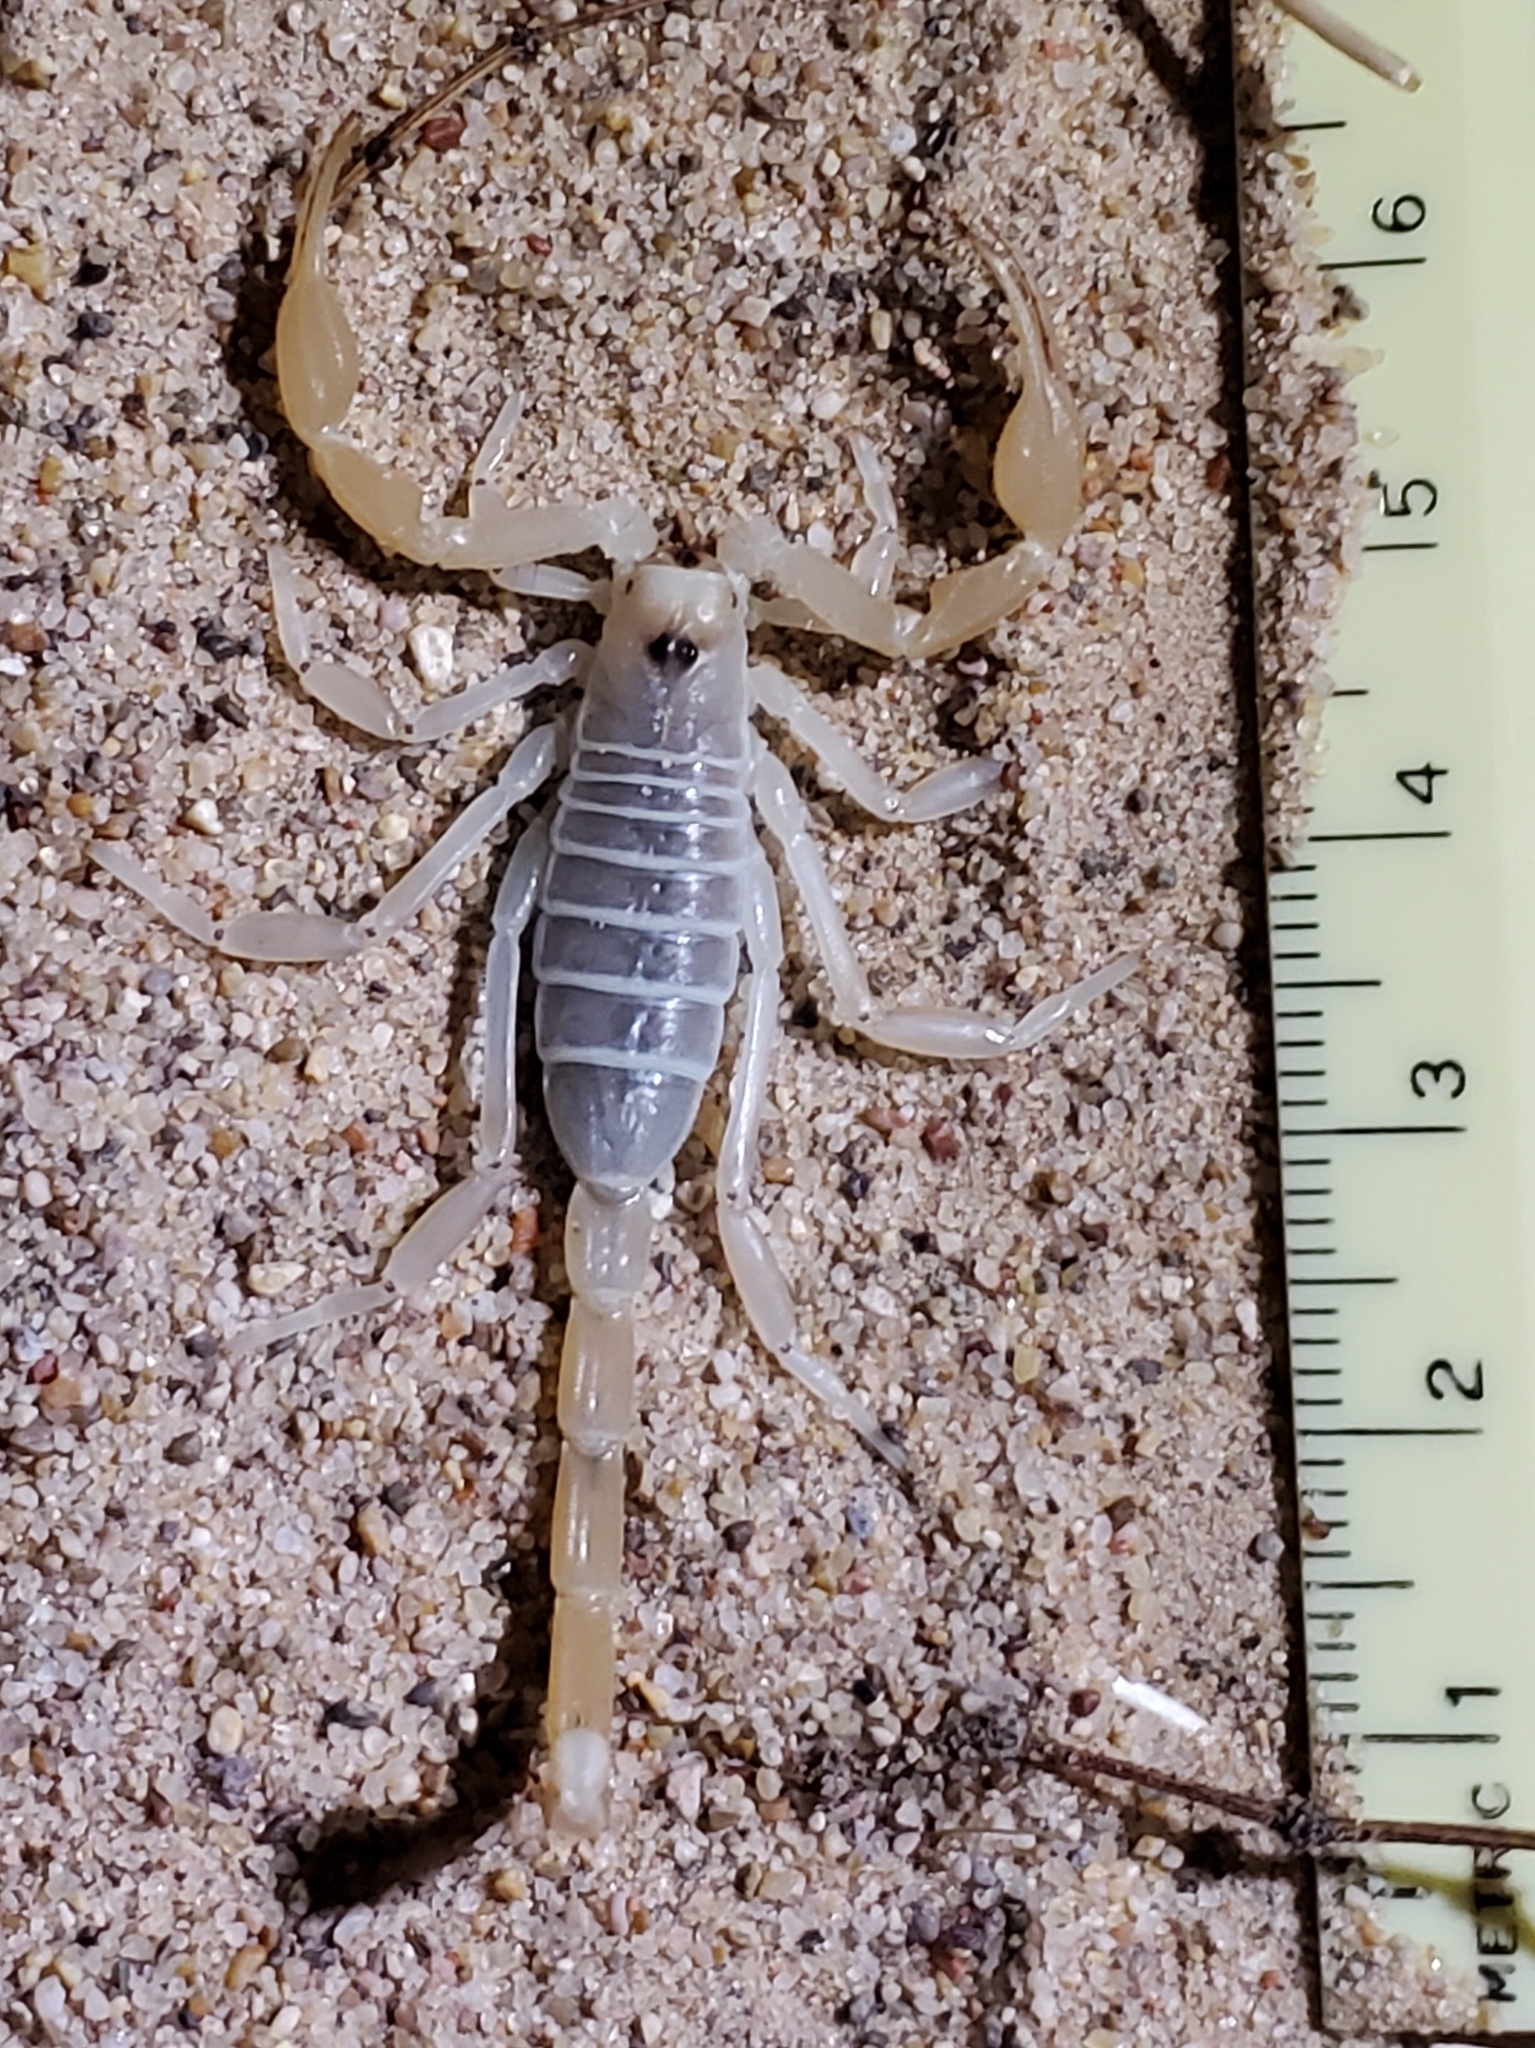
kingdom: Animalia
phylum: Arthropoda
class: Arachnida
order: Scorpiones
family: Vaejovidae
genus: Smeringurus
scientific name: Smeringurus mesaensis
